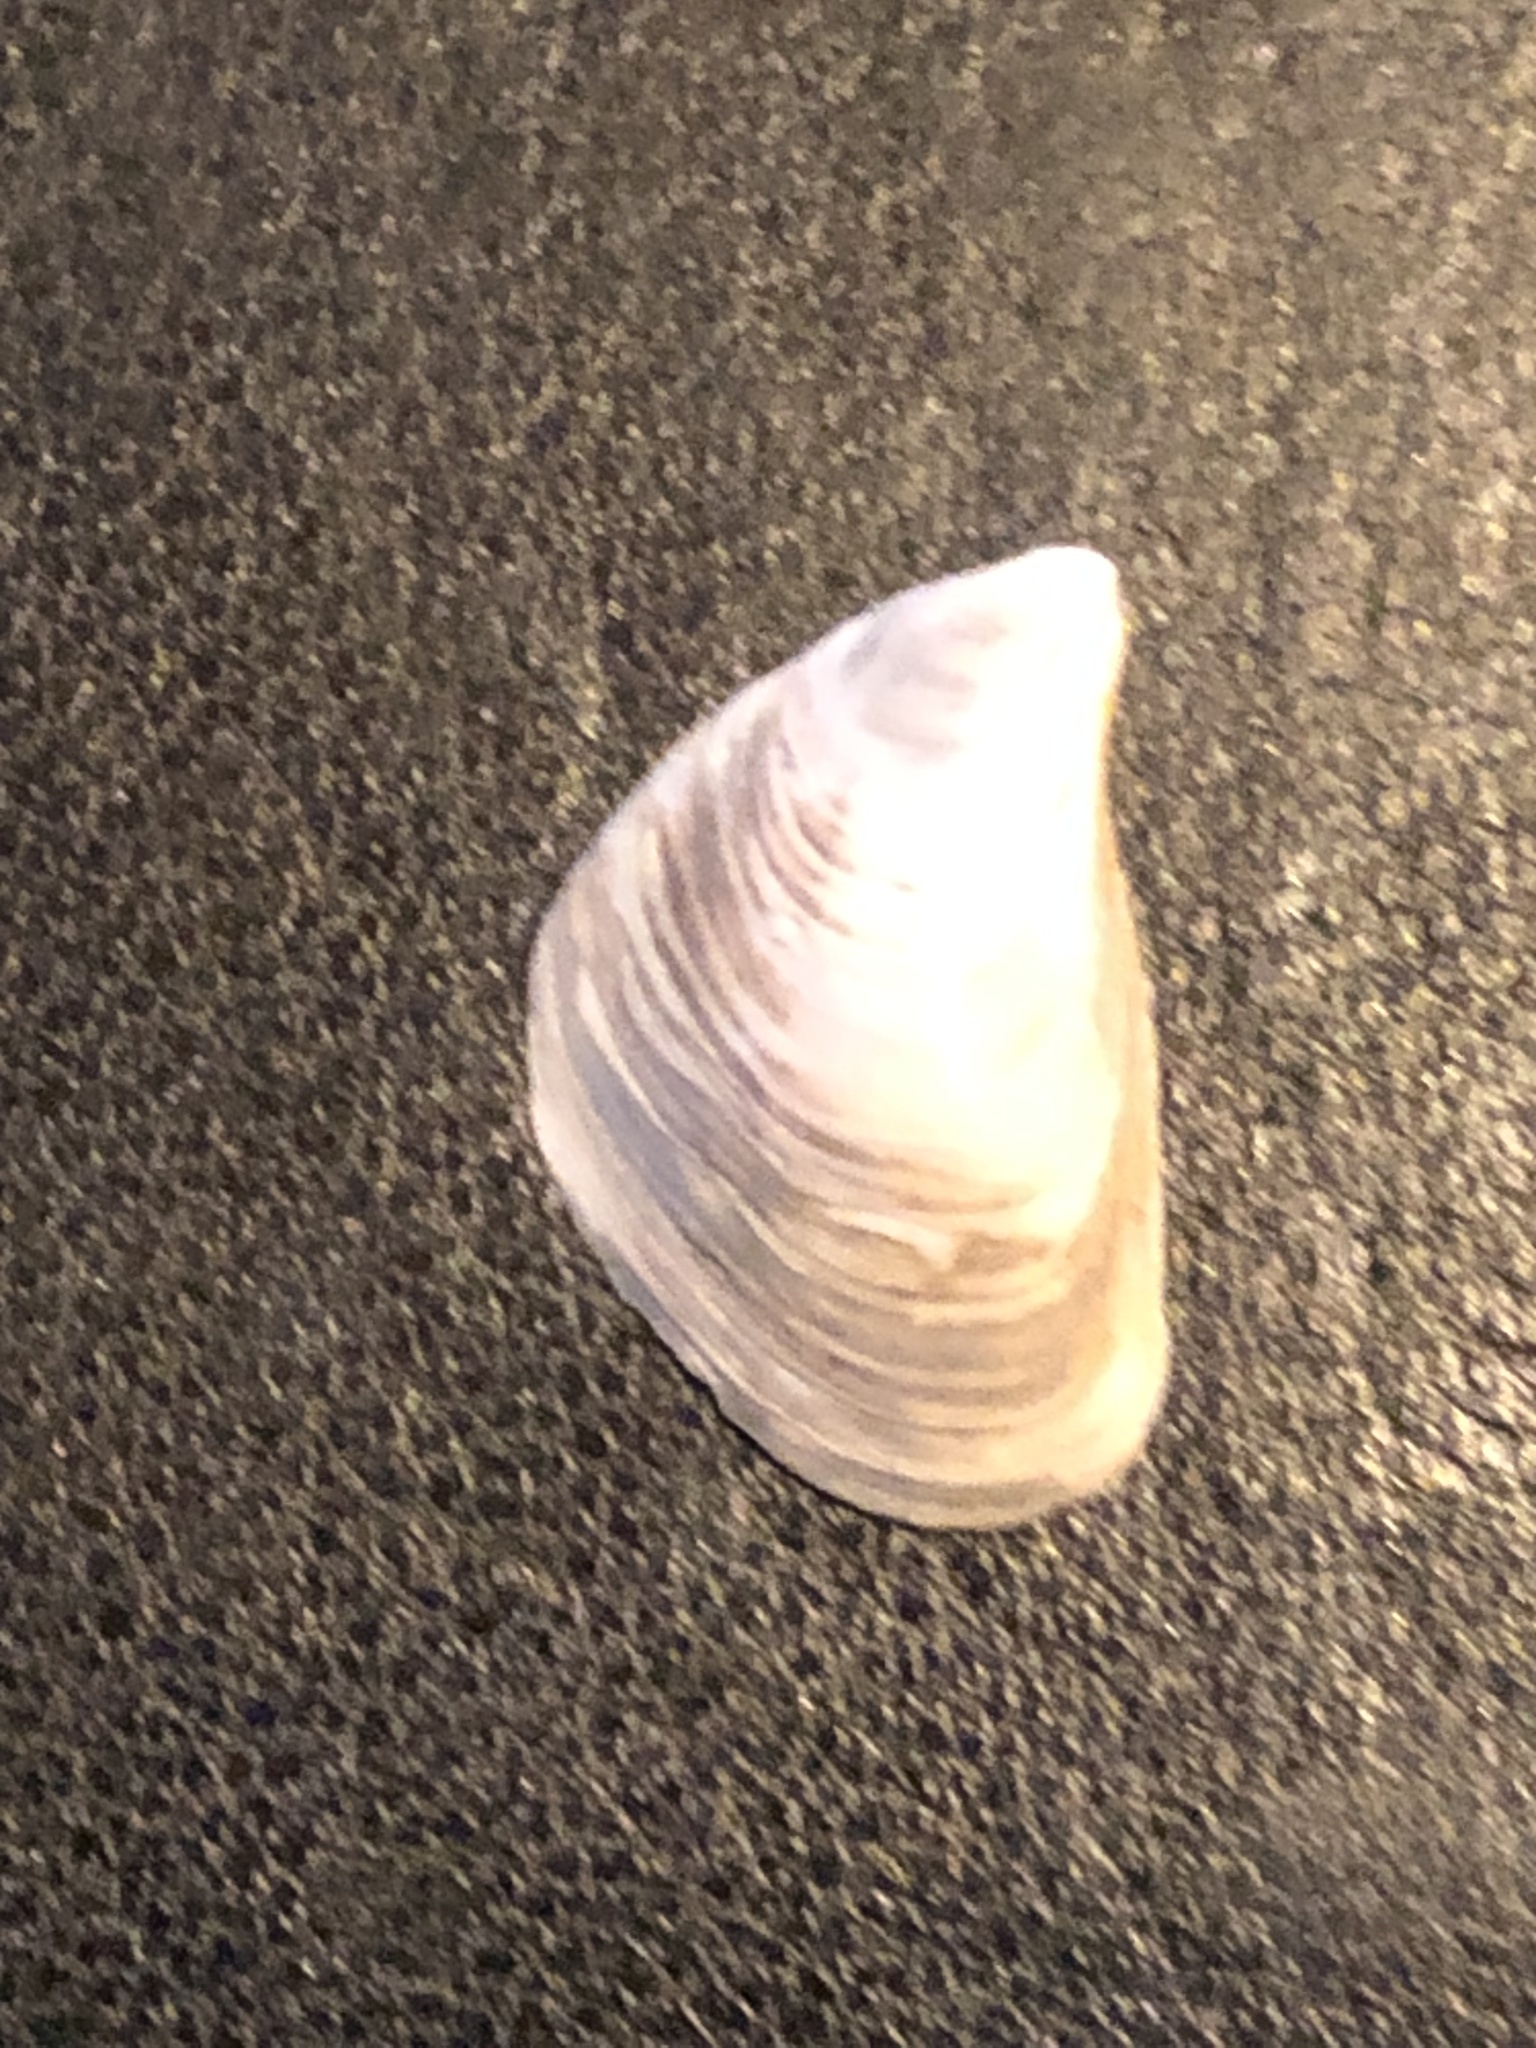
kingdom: Animalia
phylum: Mollusca
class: Bivalvia
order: Myida
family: Dreissenidae
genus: Dreissena
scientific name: Dreissena bugensis
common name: Quagga mussel
